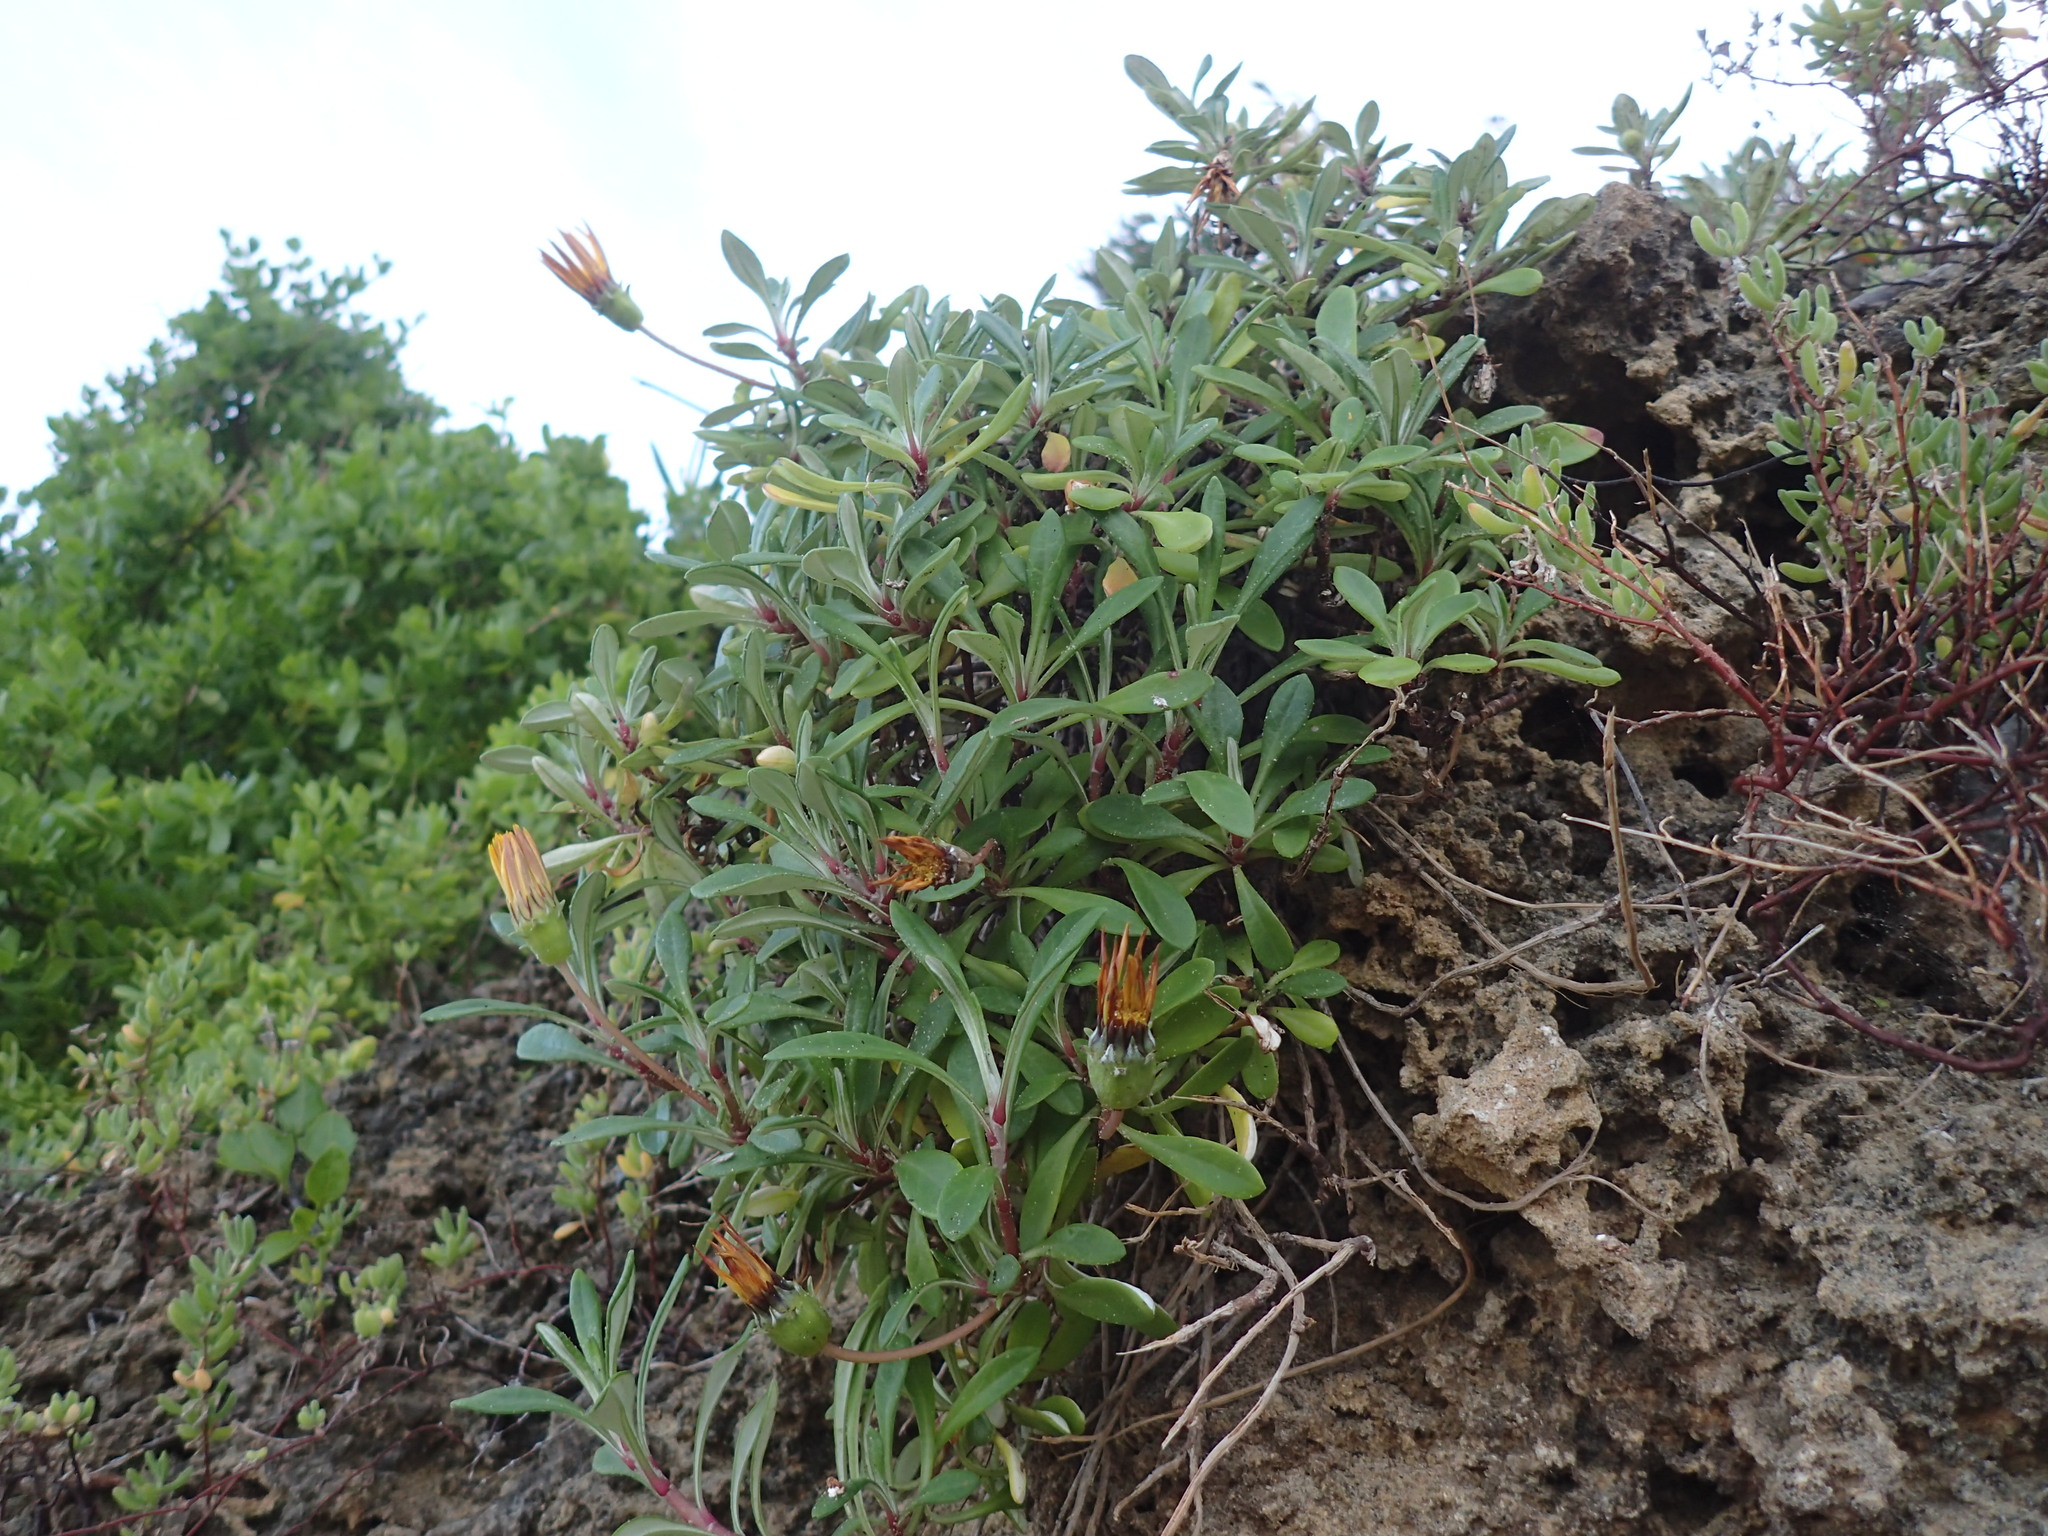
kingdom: Plantae
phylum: Tracheophyta
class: Magnoliopsida
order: Asterales
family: Asteraceae
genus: Gazania
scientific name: Gazania rigens
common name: Treasureflower
